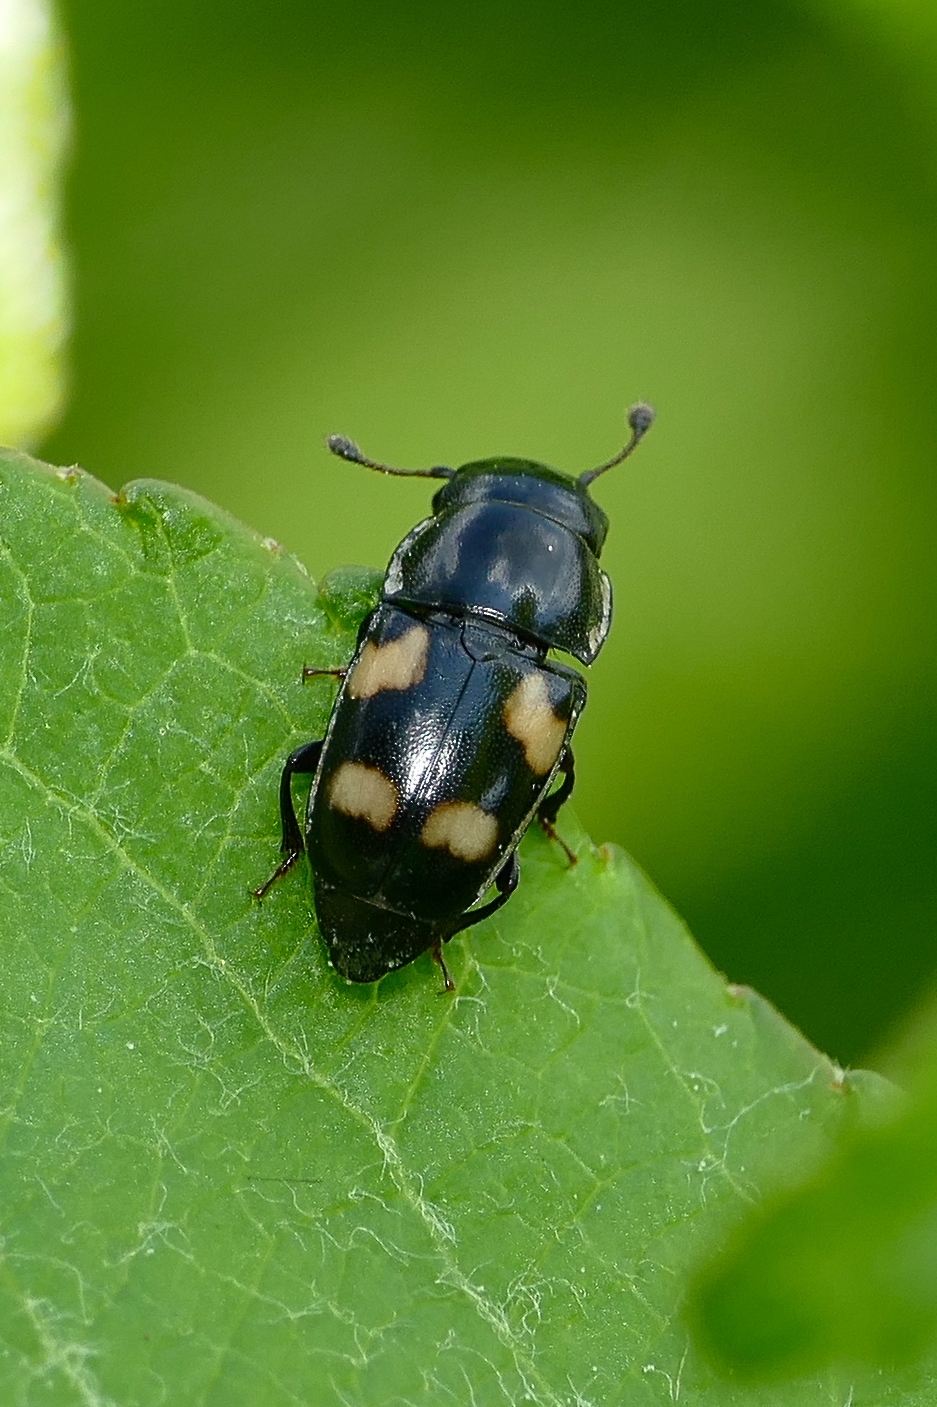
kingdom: Animalia
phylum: Arthropoda
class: Insecta
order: Coleoptera
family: Nitidulidae
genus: Glischrochilus
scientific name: Glischrochilus quadrisignatus
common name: Picnic beetle
